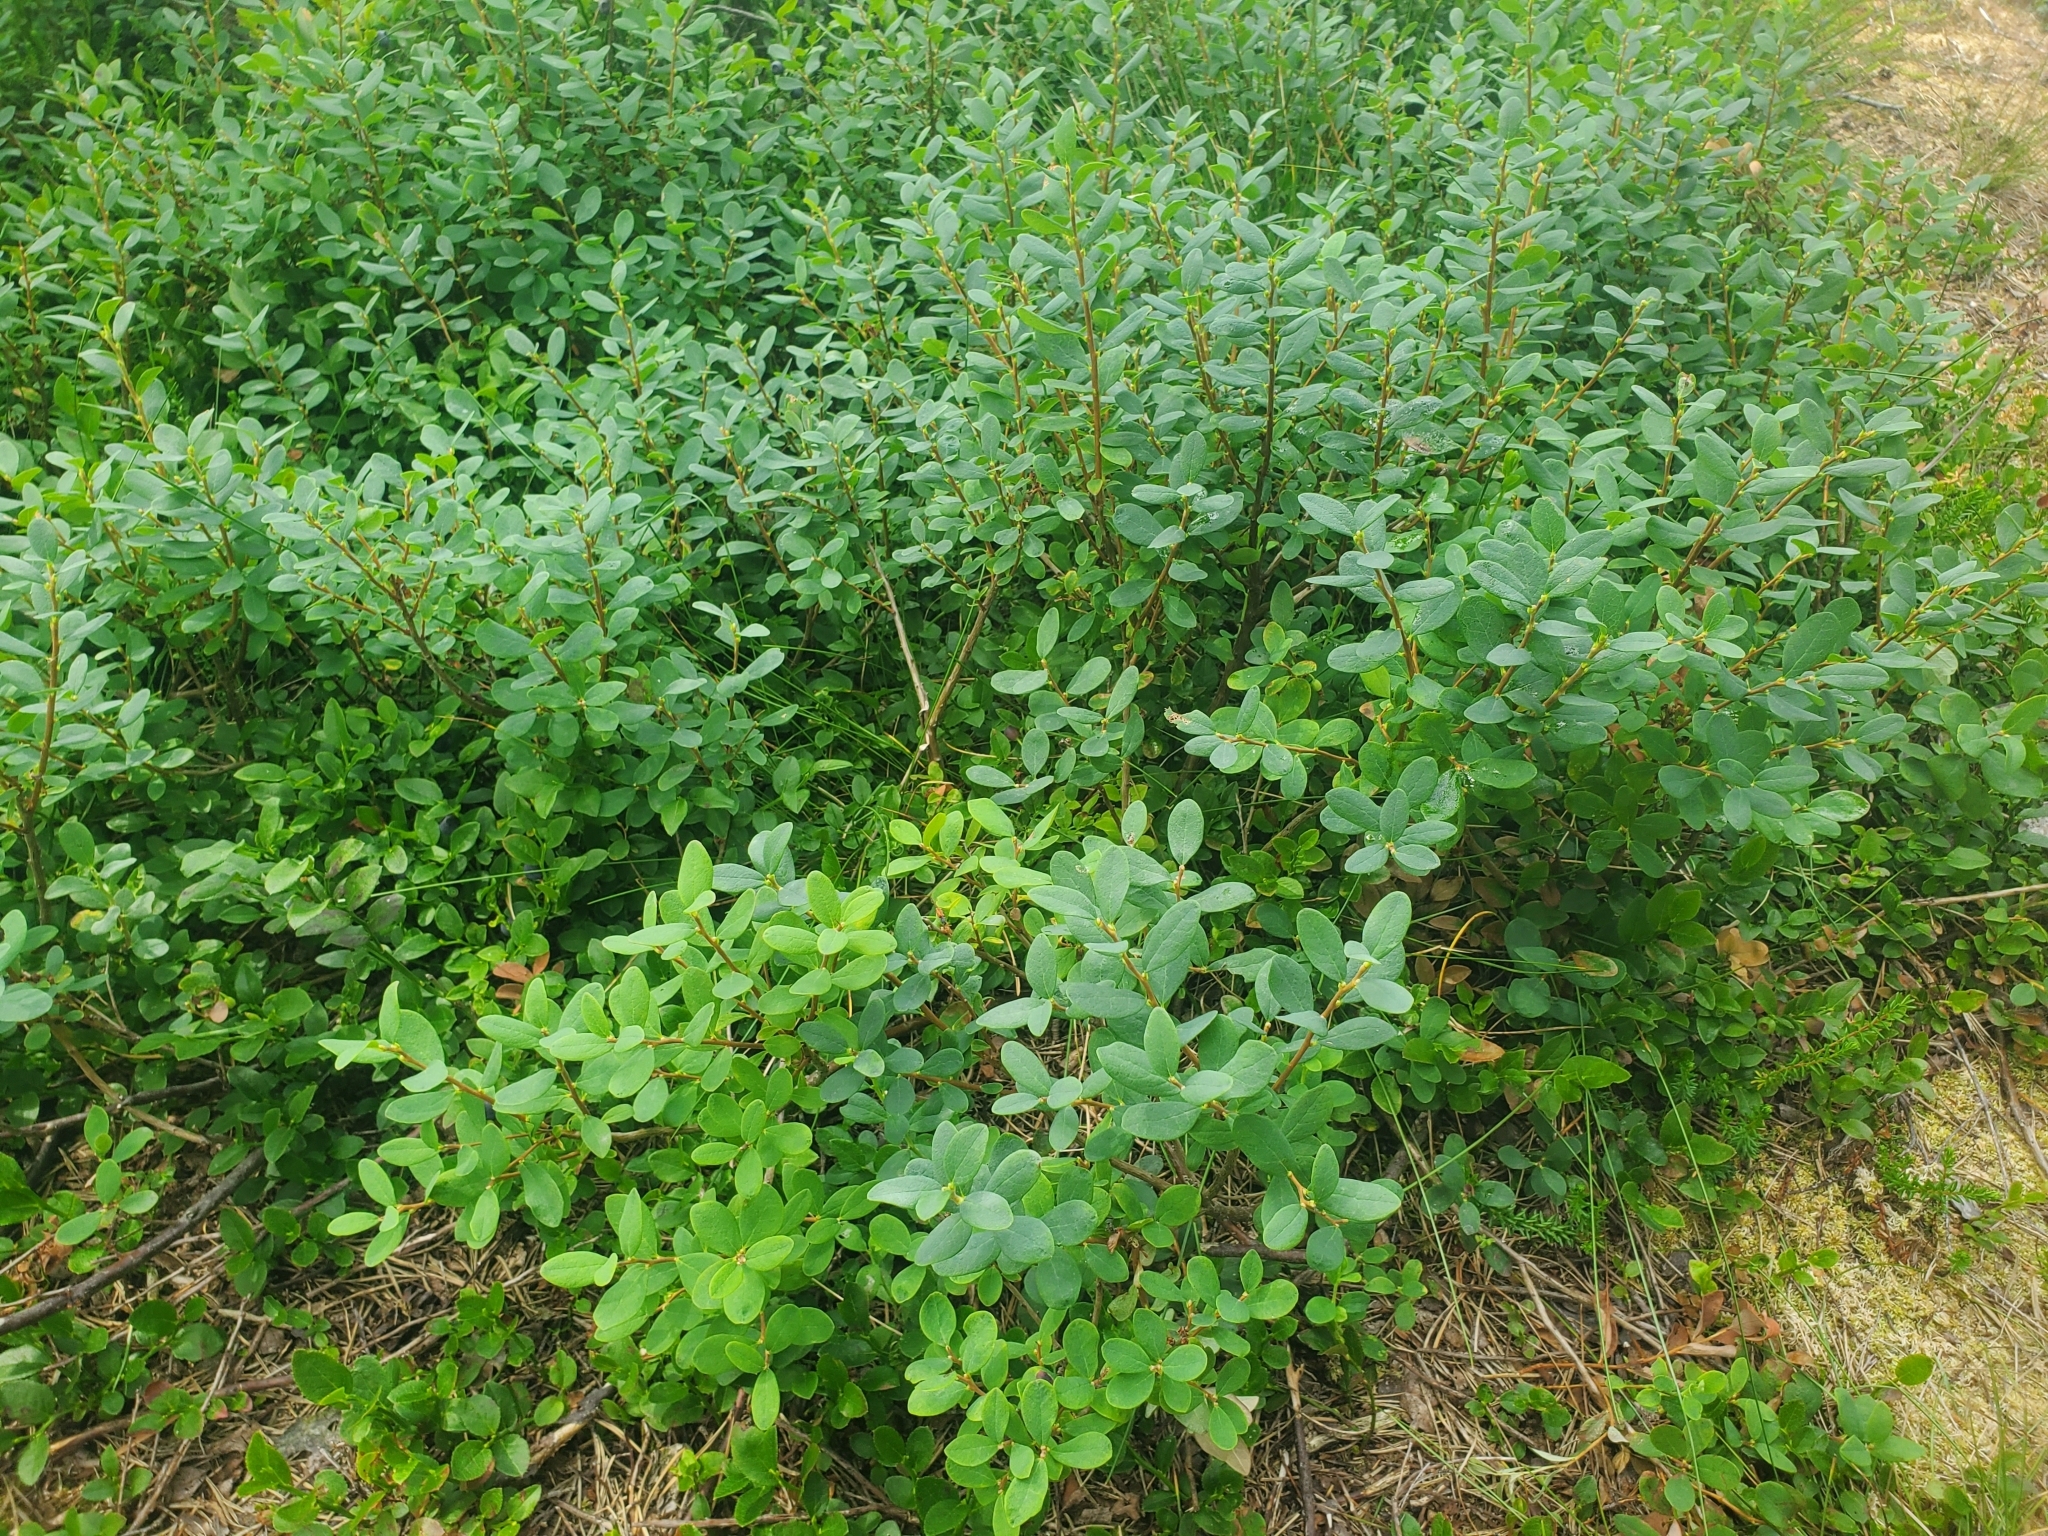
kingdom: Plantae
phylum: Tracheophyta
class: Magnoliopsida
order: Ericales
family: Ericaceae
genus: Vaccinium
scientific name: Vaccinium uliginosum
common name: Bog bilberry
